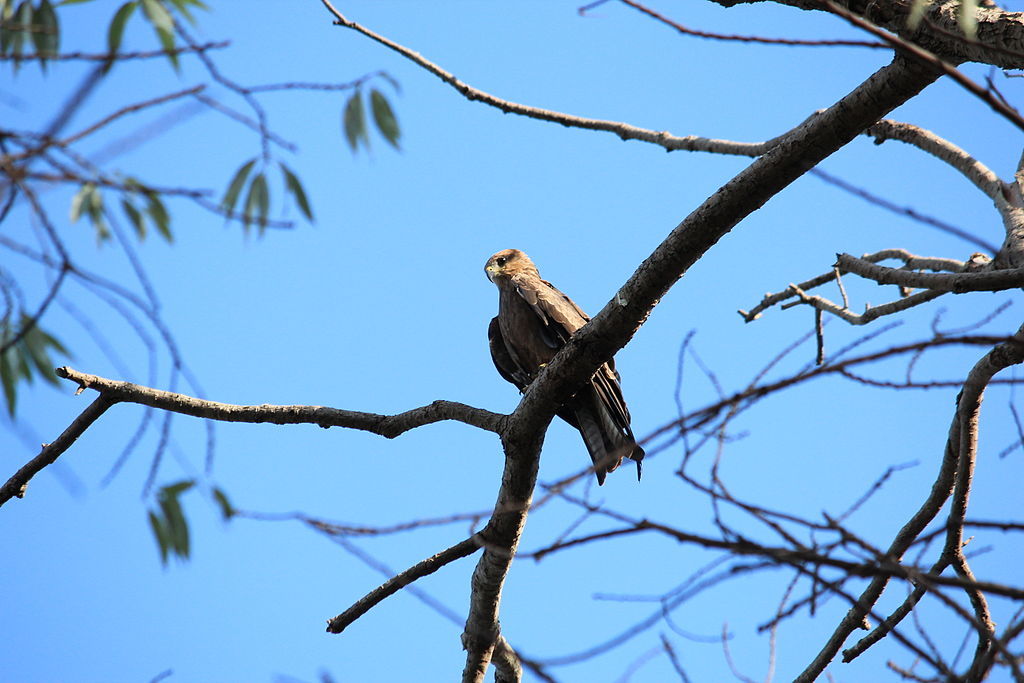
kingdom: Animalia
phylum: Chordata
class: Aves
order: Accipitriformes
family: Accipitridae
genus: Milvus
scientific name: Milvus migrans
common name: Black kite
